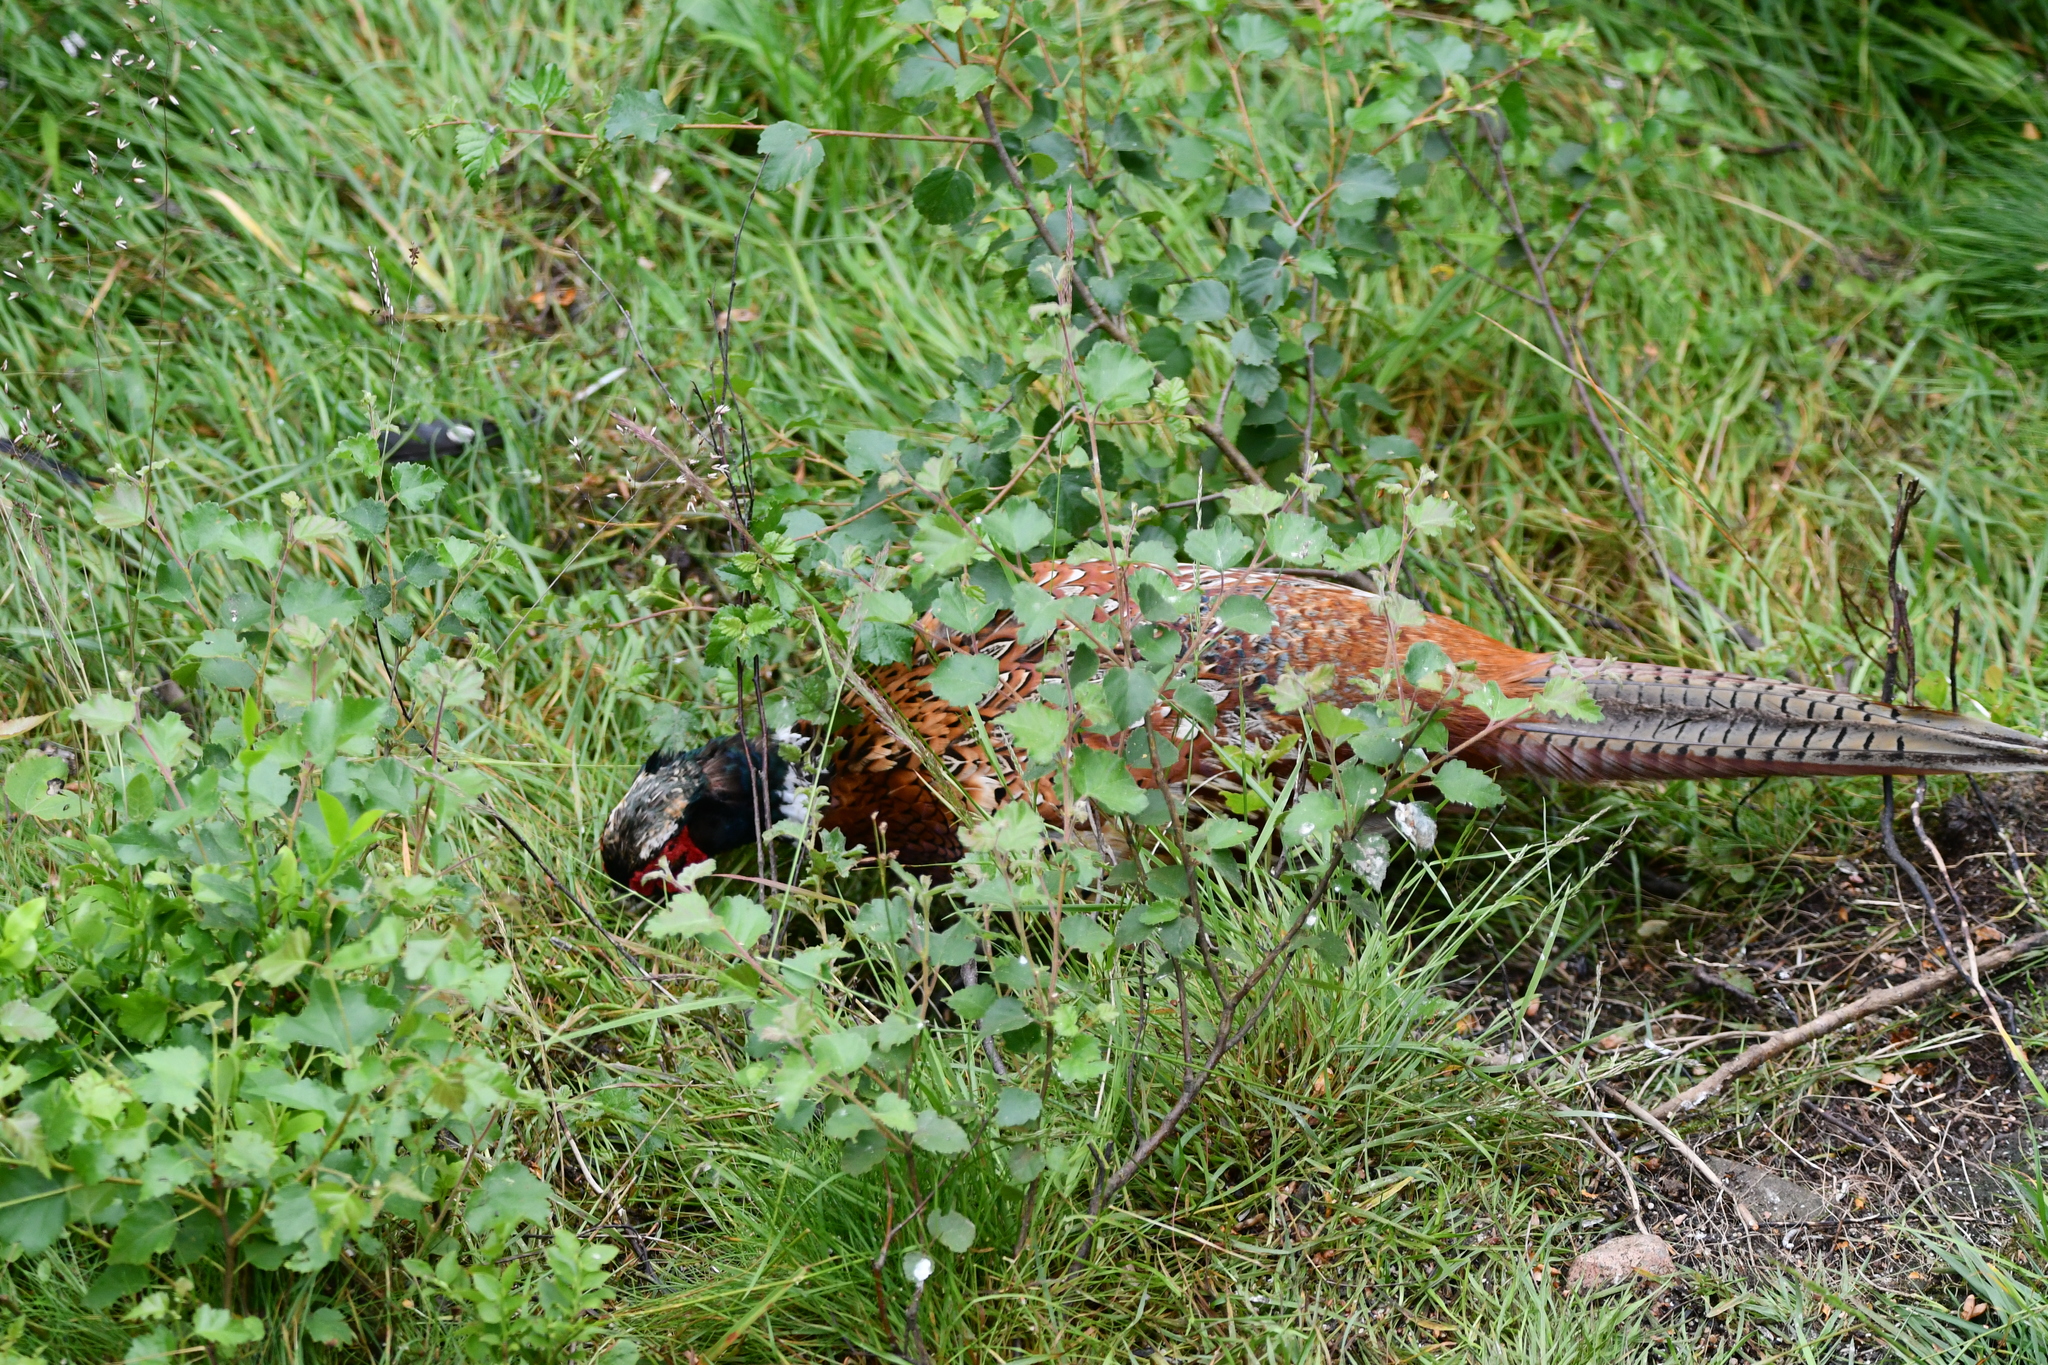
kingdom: Animalia
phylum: Chordata
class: Aves
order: Galliformes
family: Phasianidae
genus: Phasianus
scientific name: Phasianus colchicus
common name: Common pheasant
